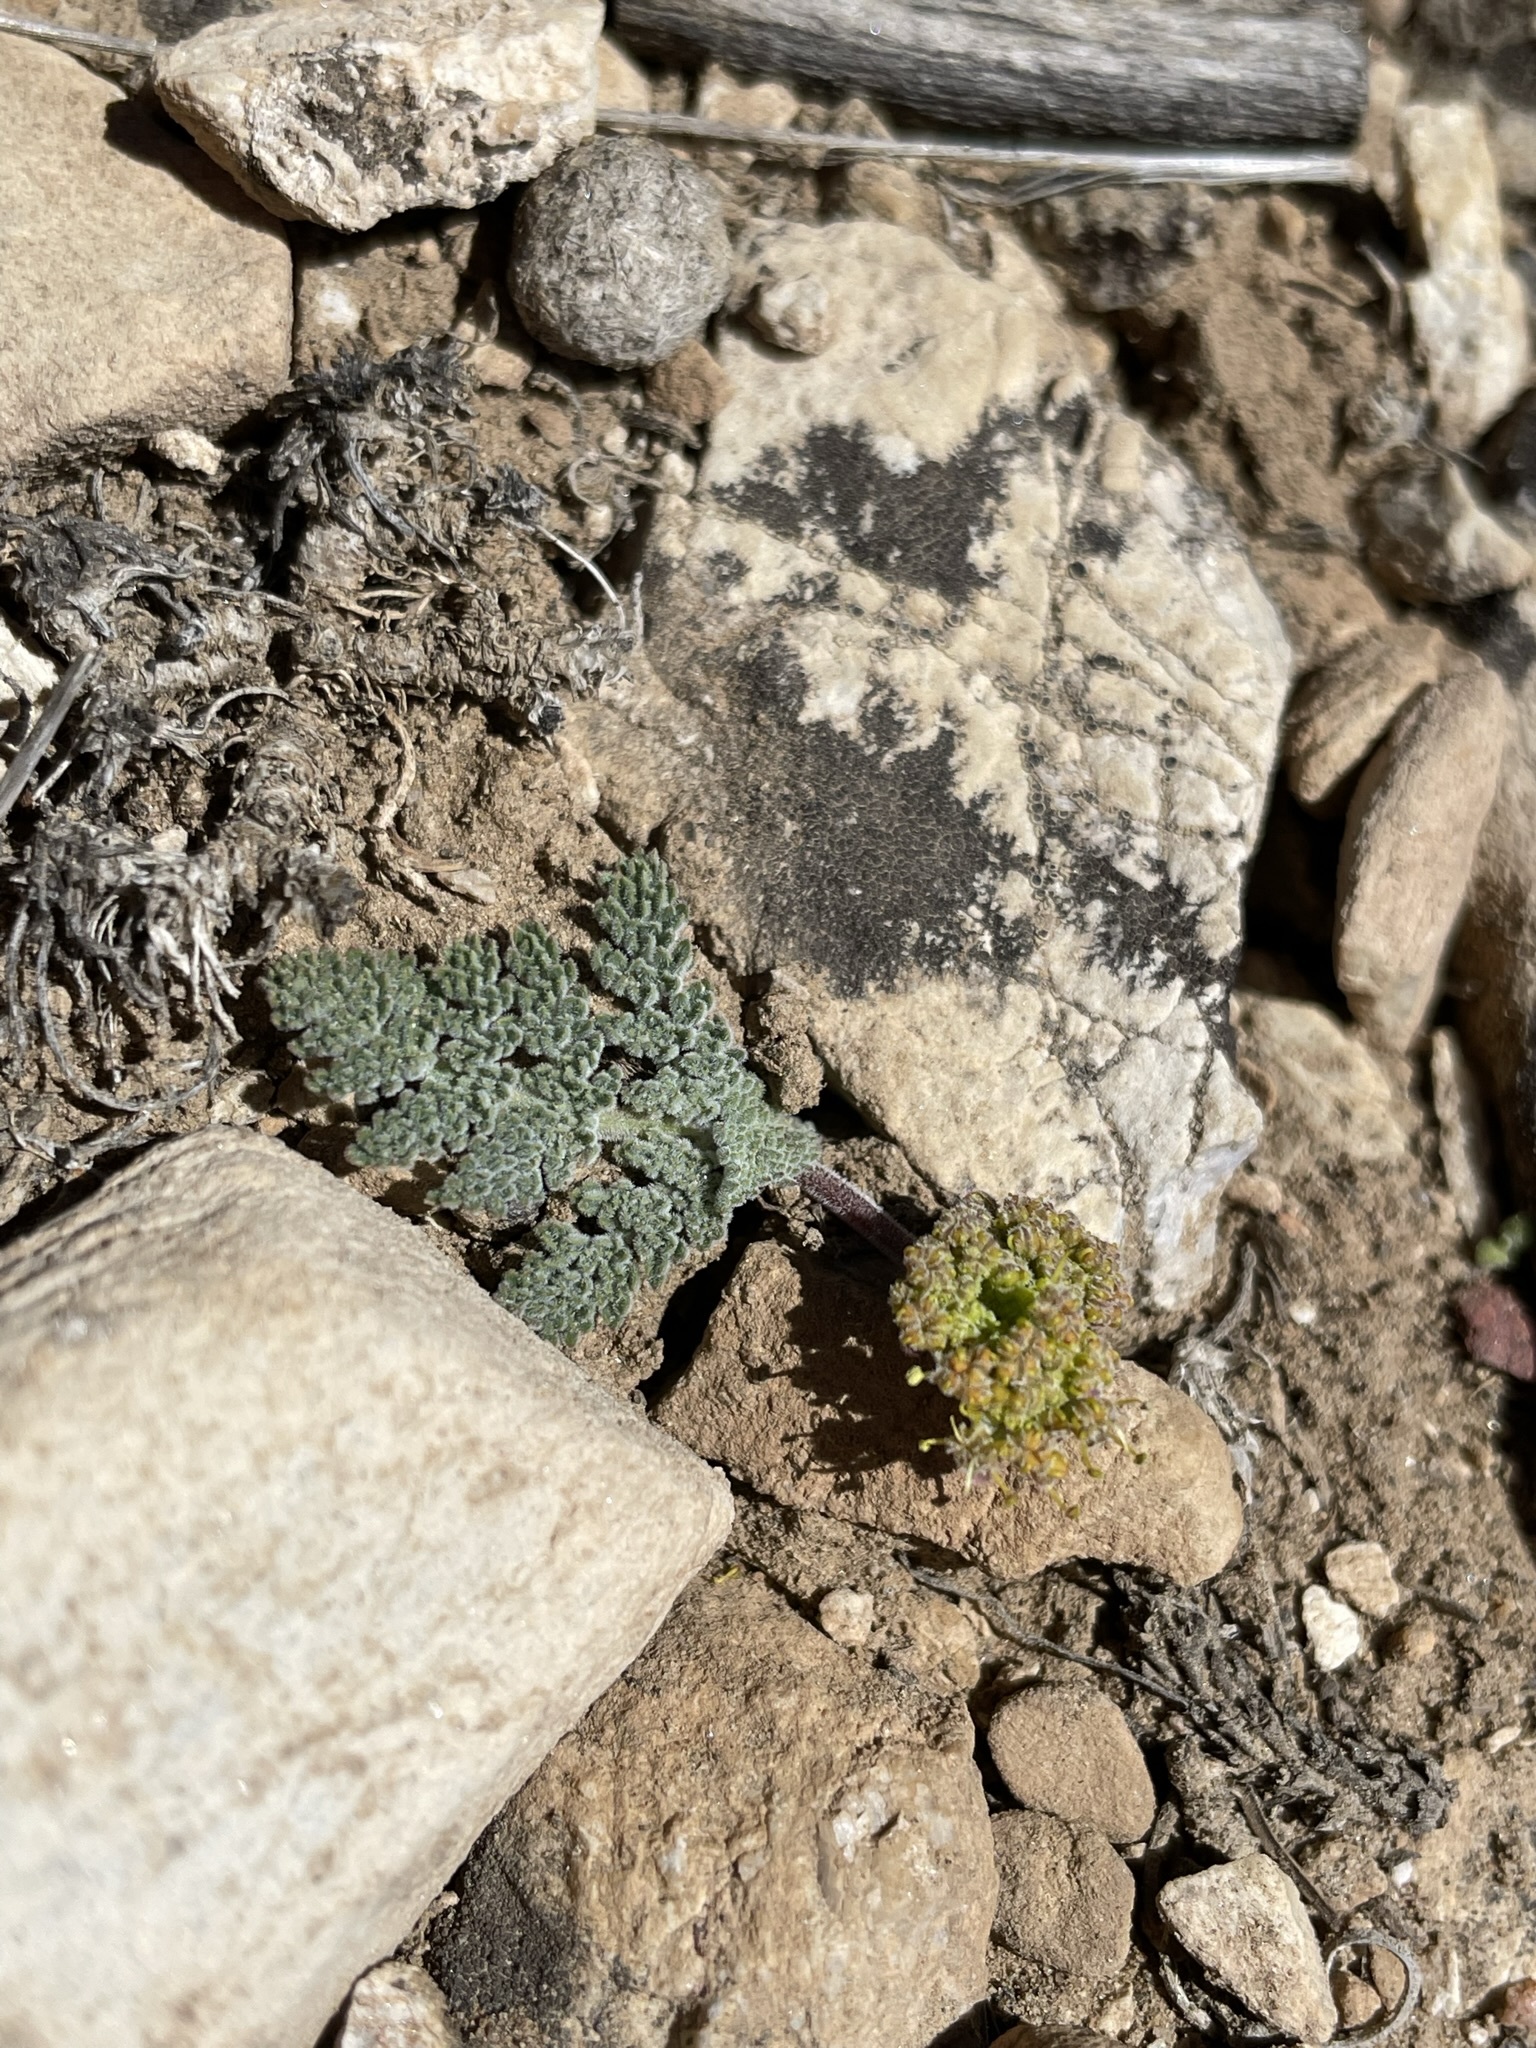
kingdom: Plantae
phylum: Tracheophyta
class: Magnoliopsida
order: Apiales
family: Apiaceae
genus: Lomatium
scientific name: Lomatium foeniculaceum
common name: Desert-parsley
